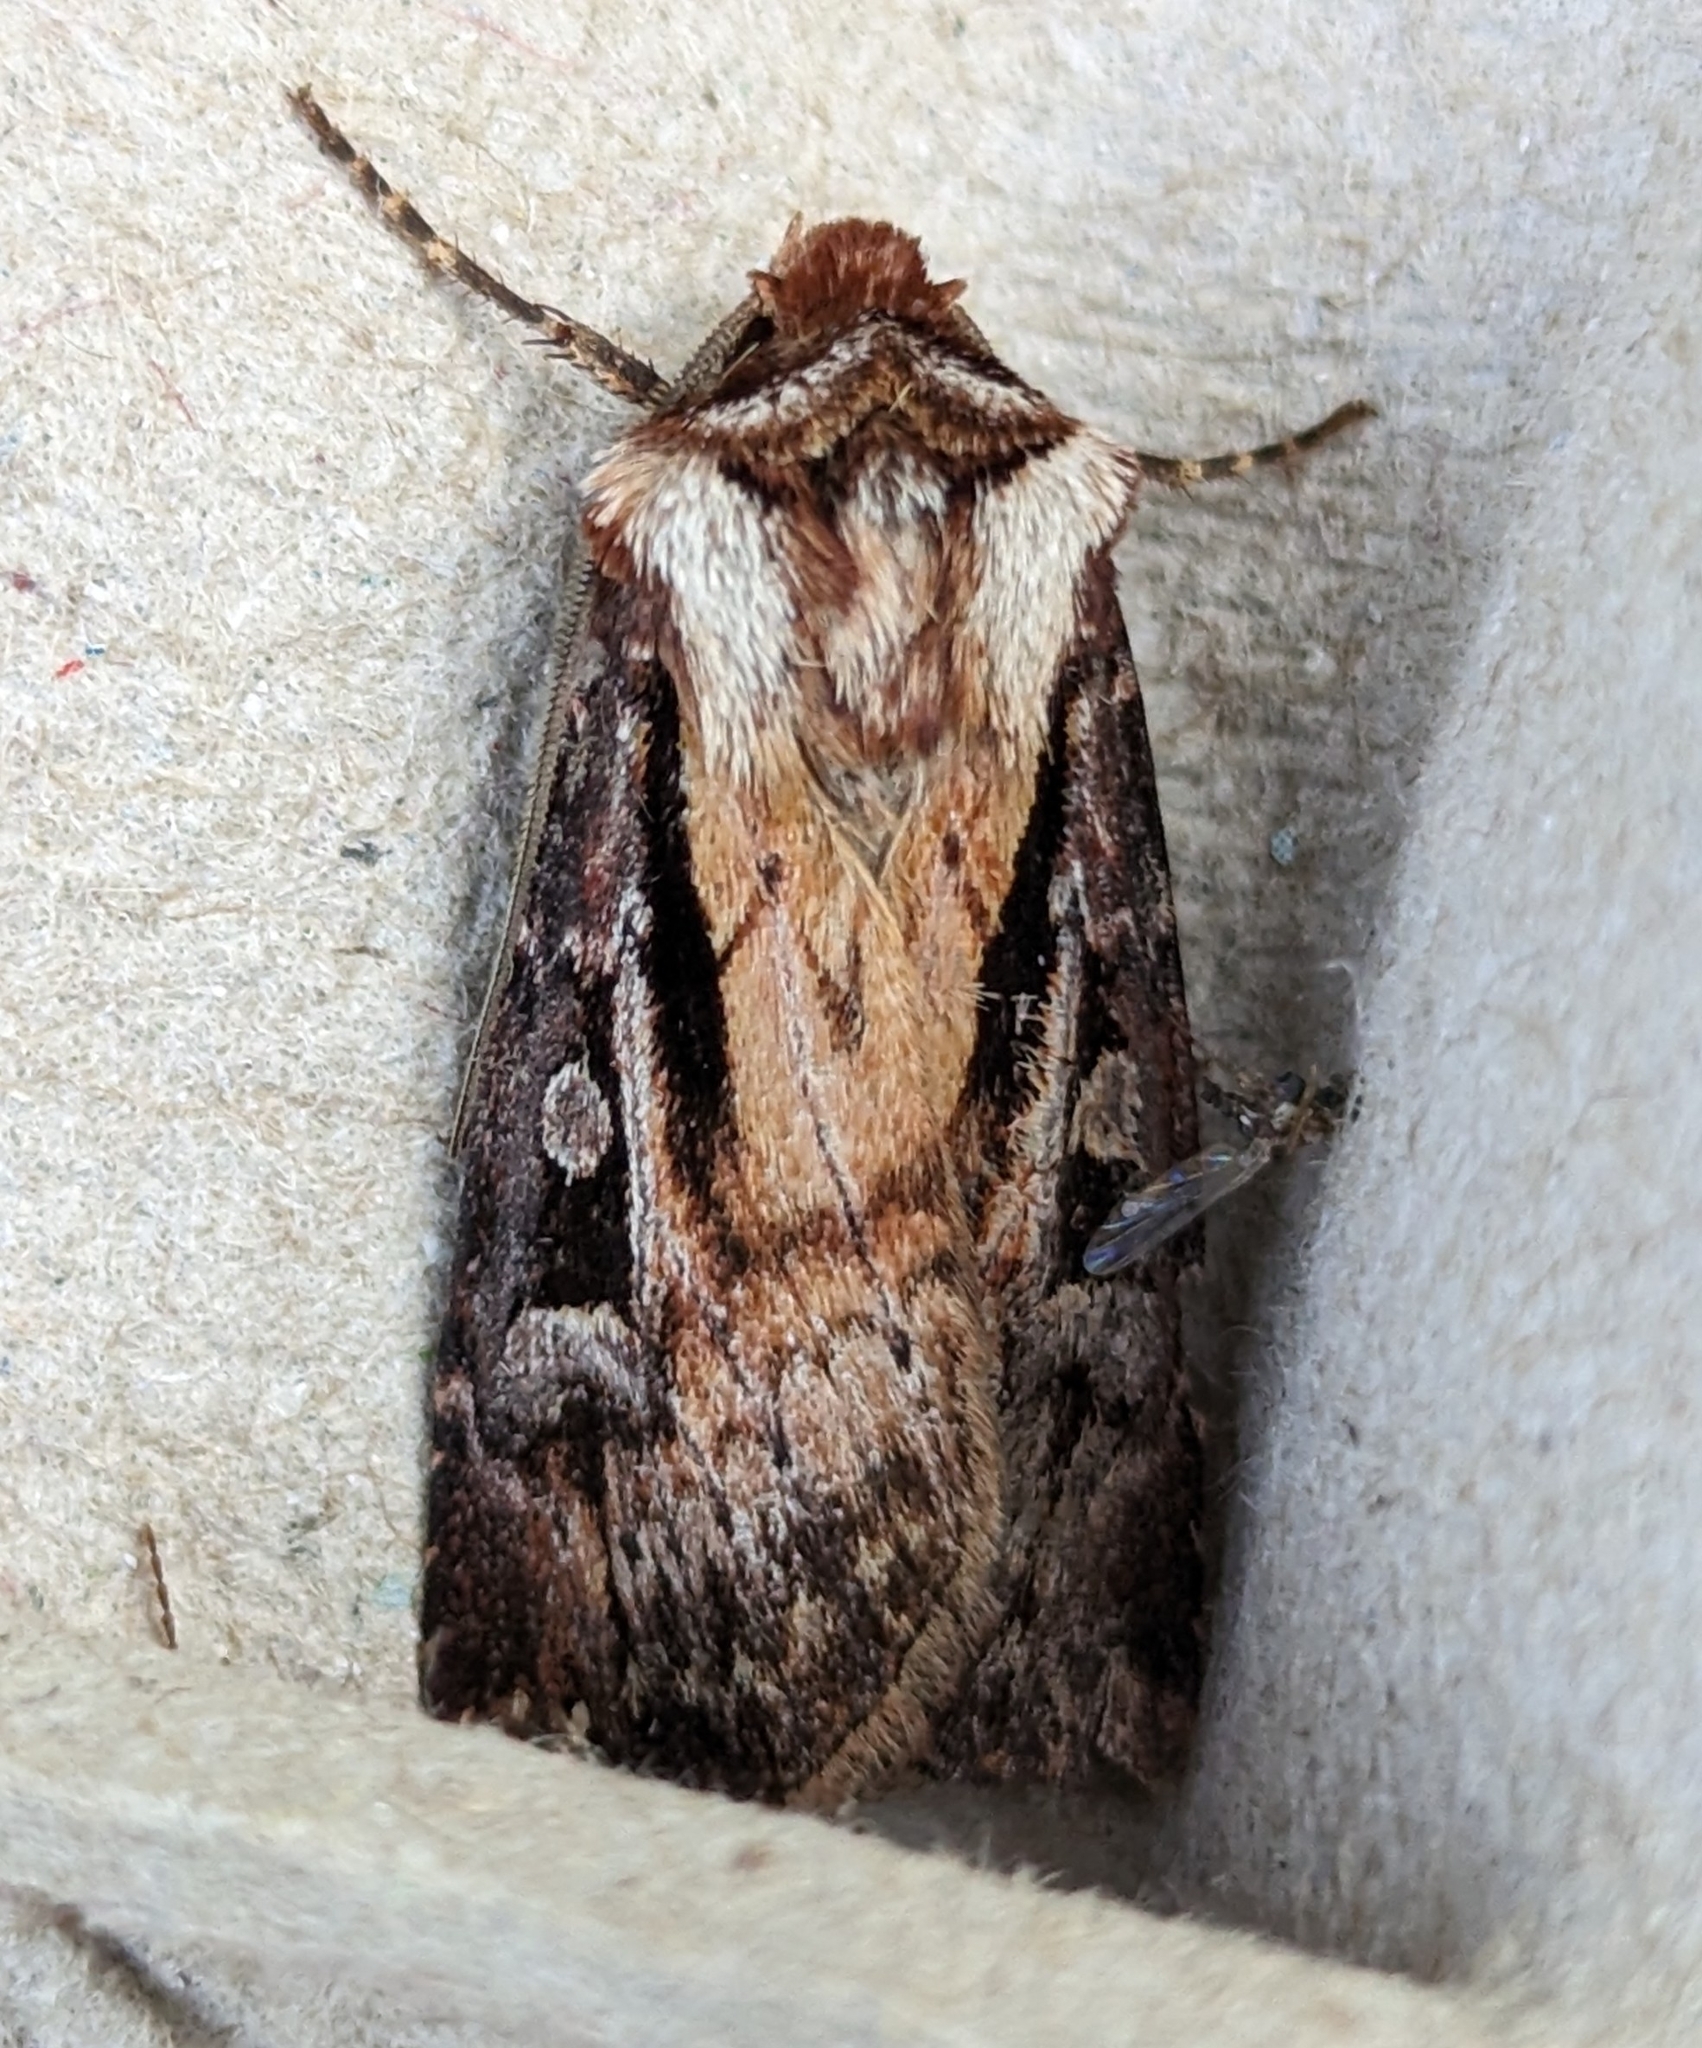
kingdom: Animalia
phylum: Arthropoda
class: Insecta
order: Lepidoptera
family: Noctuidae
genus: Agrotis
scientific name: Agrotis vancouverensis
